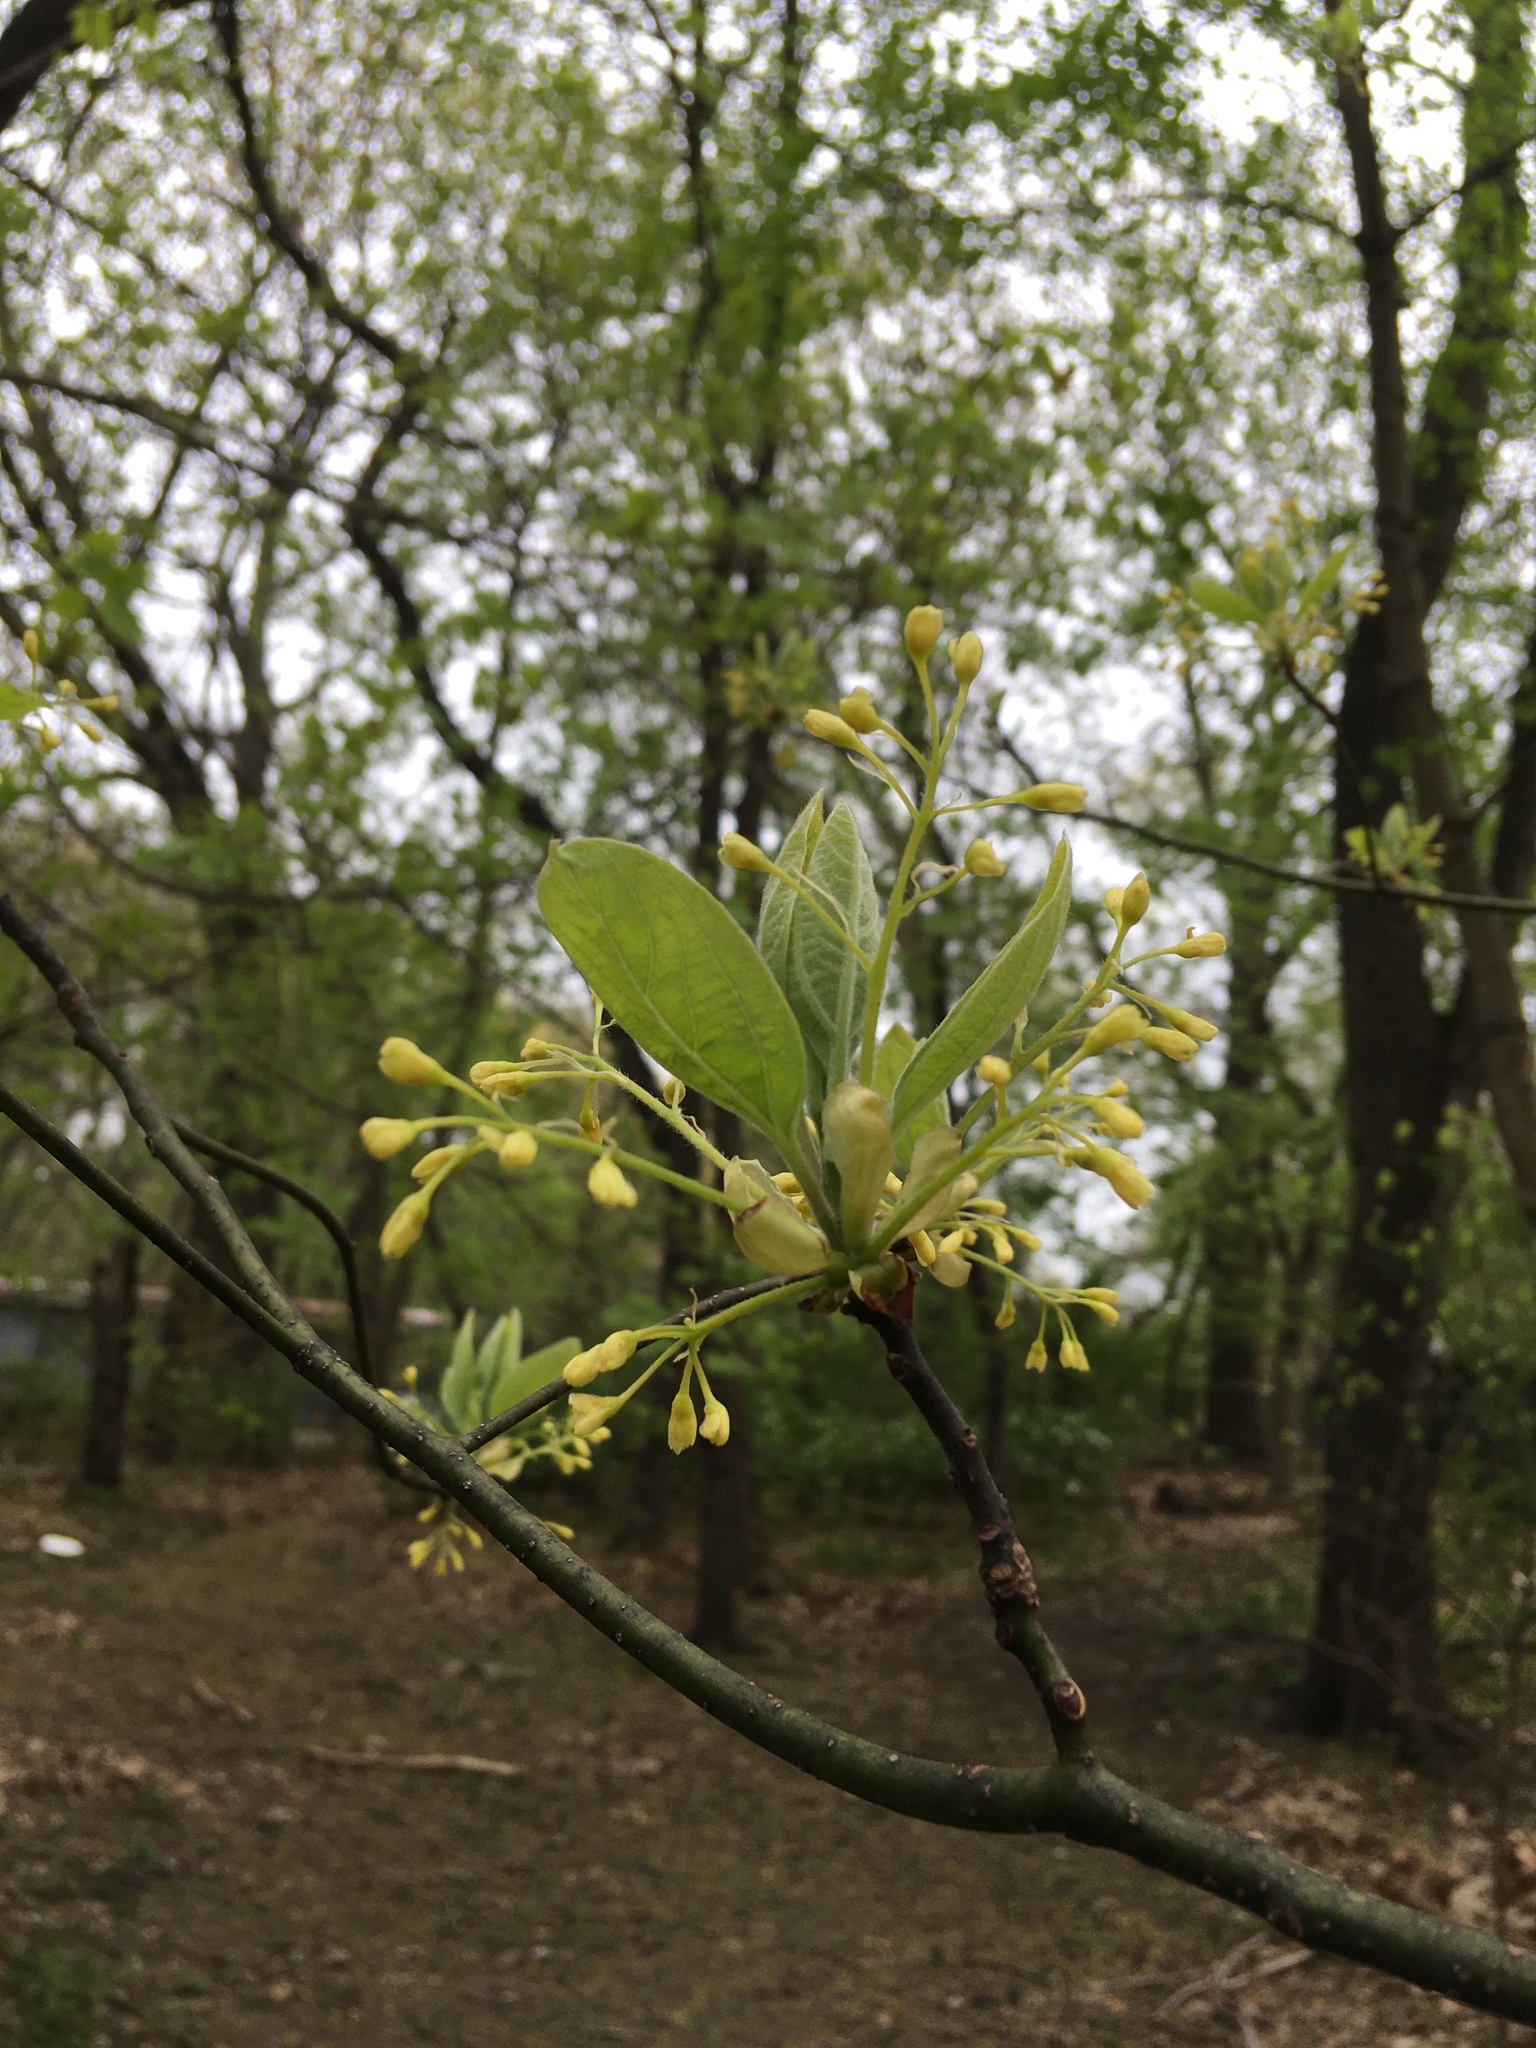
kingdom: Plantae
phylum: Tracheophyta
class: Magnoliopsida
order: Laurales
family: Lauraceae
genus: Sassafras
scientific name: Sassafras albidum
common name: Sassafras
